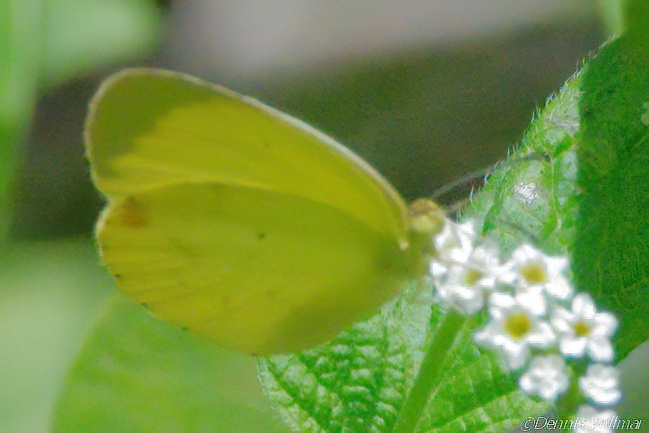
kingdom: Animalia
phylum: Arthropoda
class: Insecta
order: Lepidoptera
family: Pieridae
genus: Pyrisitia
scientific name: Pyrisitia nise
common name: Mimosa yellow
